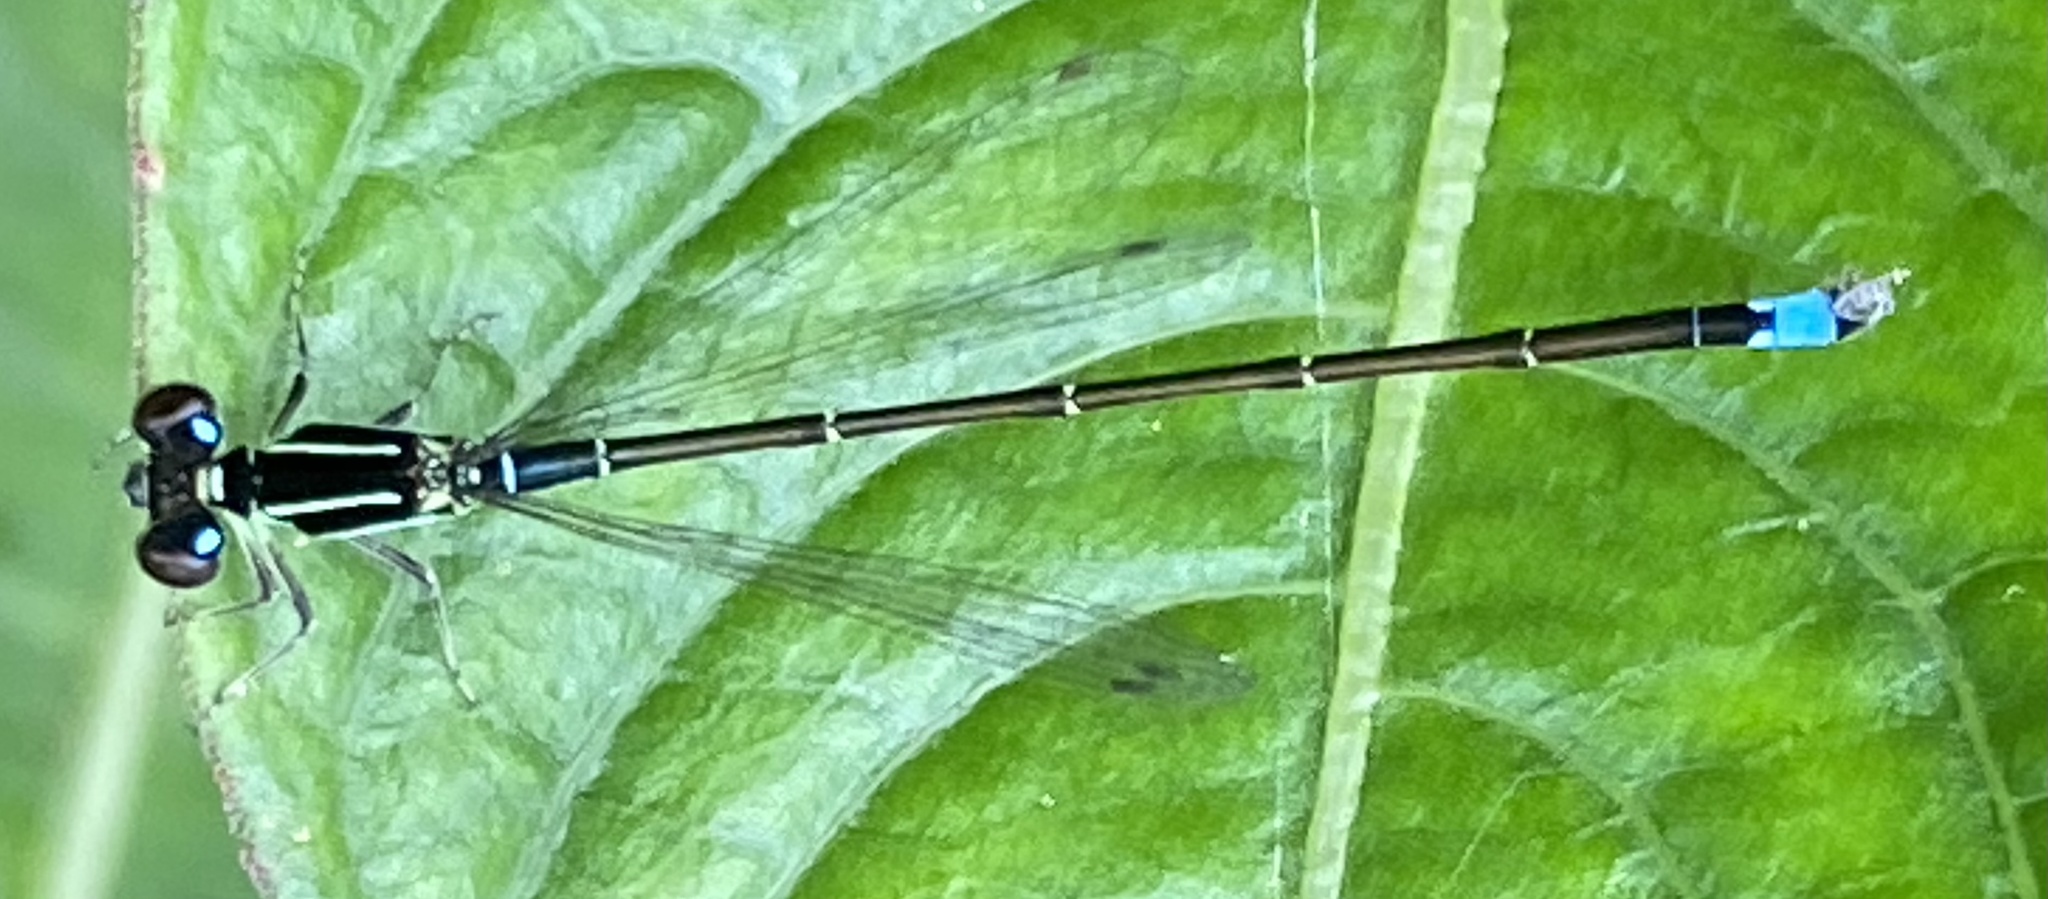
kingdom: Animalia
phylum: Arthropoda
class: Insecta
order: Odonata
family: Coenagrionidae
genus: Ischnura
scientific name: Ischnura capreolus
